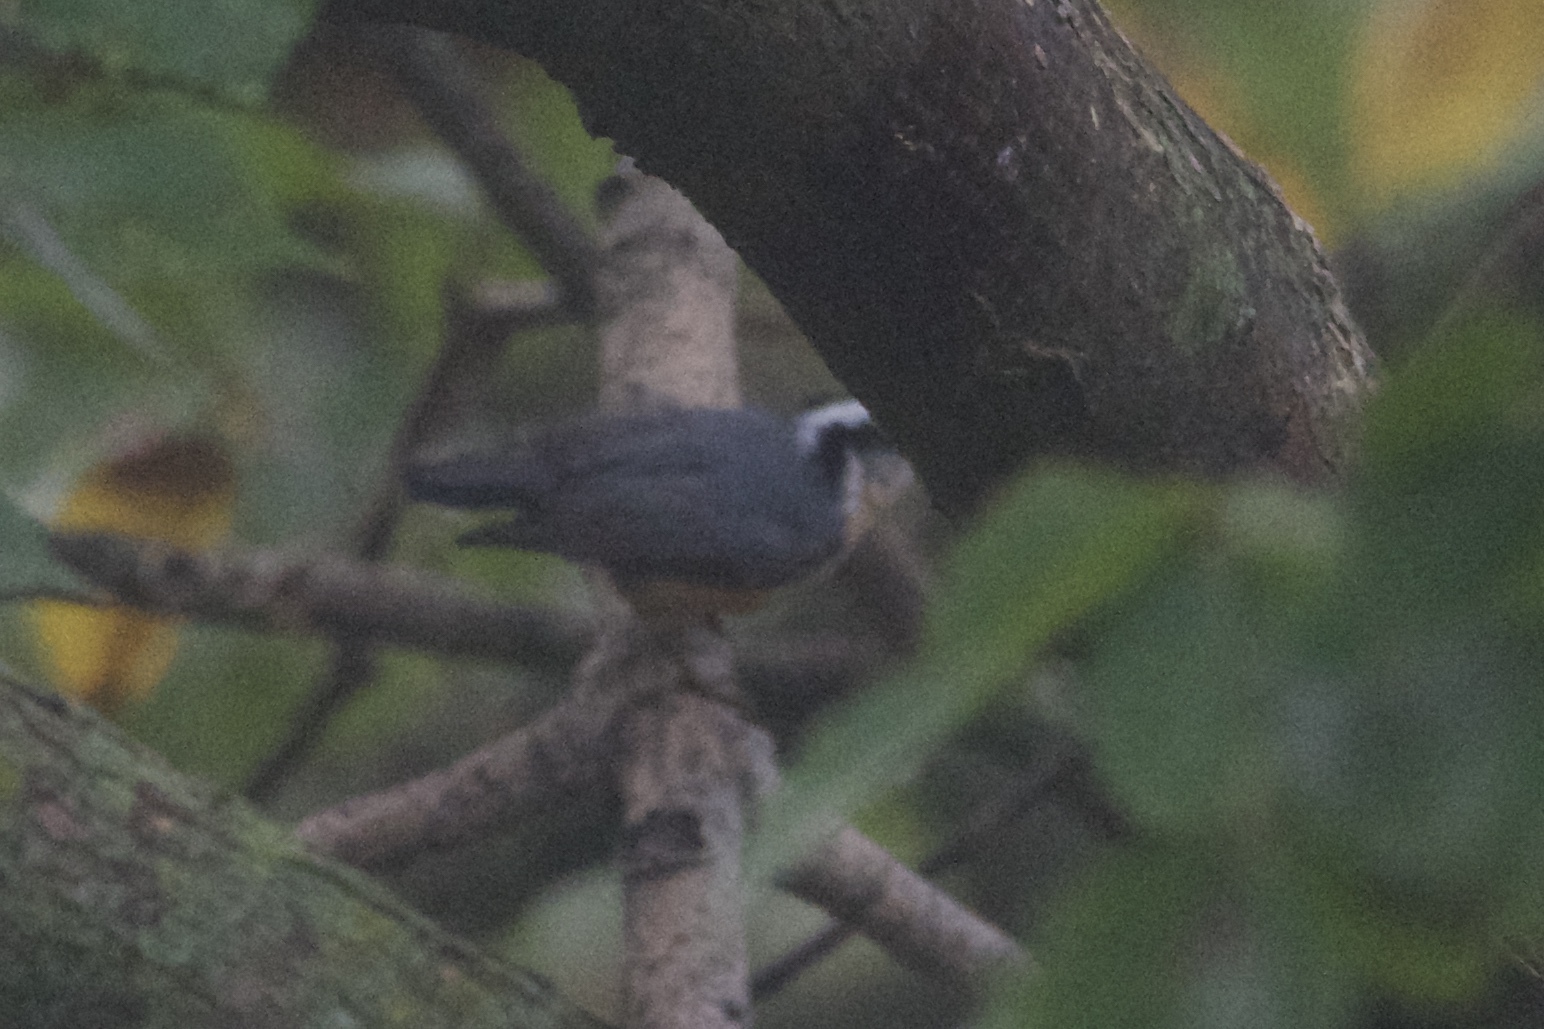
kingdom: Animalia
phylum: Chordata
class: Aves
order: Passeriformes
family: Sittidae
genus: Sitta
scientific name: Sitta canadensis
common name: Red-breasted nuthatch
